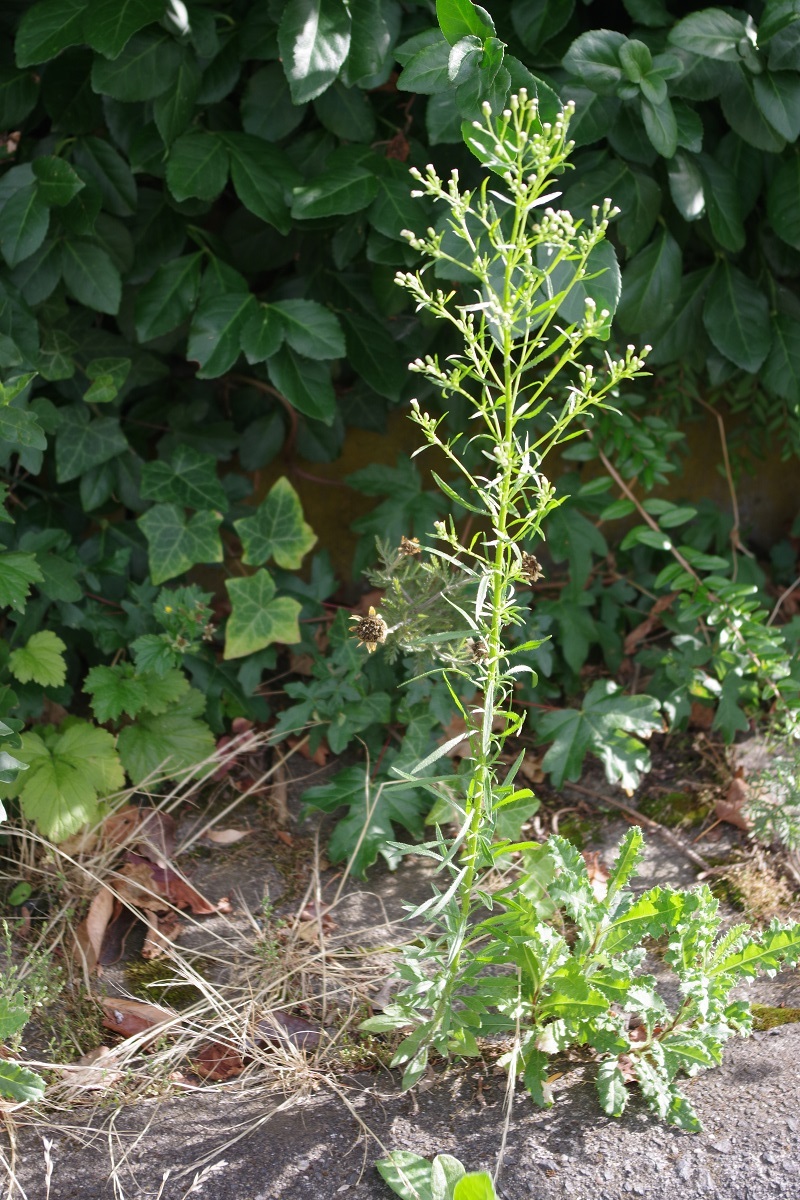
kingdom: Plantae
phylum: Tracheophyta
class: Magnoliopsida
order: Asterales
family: Asteraceae
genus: Erigeron
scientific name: Erigeron canadensis
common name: Canadian fleabane
